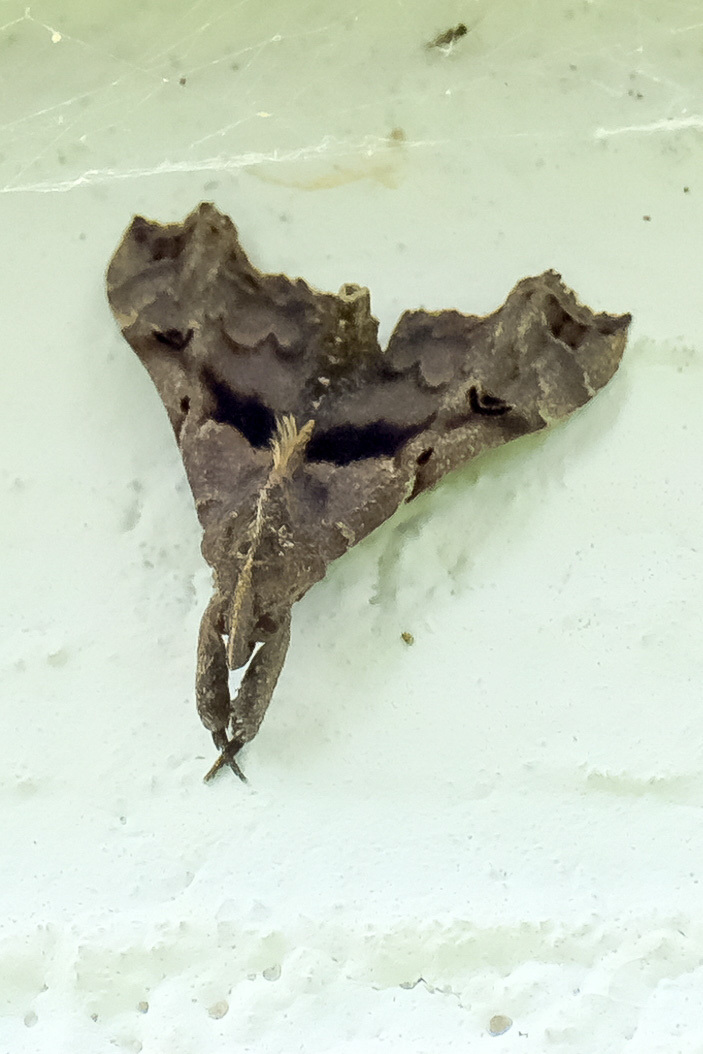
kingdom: Animalia
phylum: Arthropoda
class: Insecta
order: Lepidoptera
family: Erebidae
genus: Palthis
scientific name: Palthis asopialis
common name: Faint-spotted palthis moth
